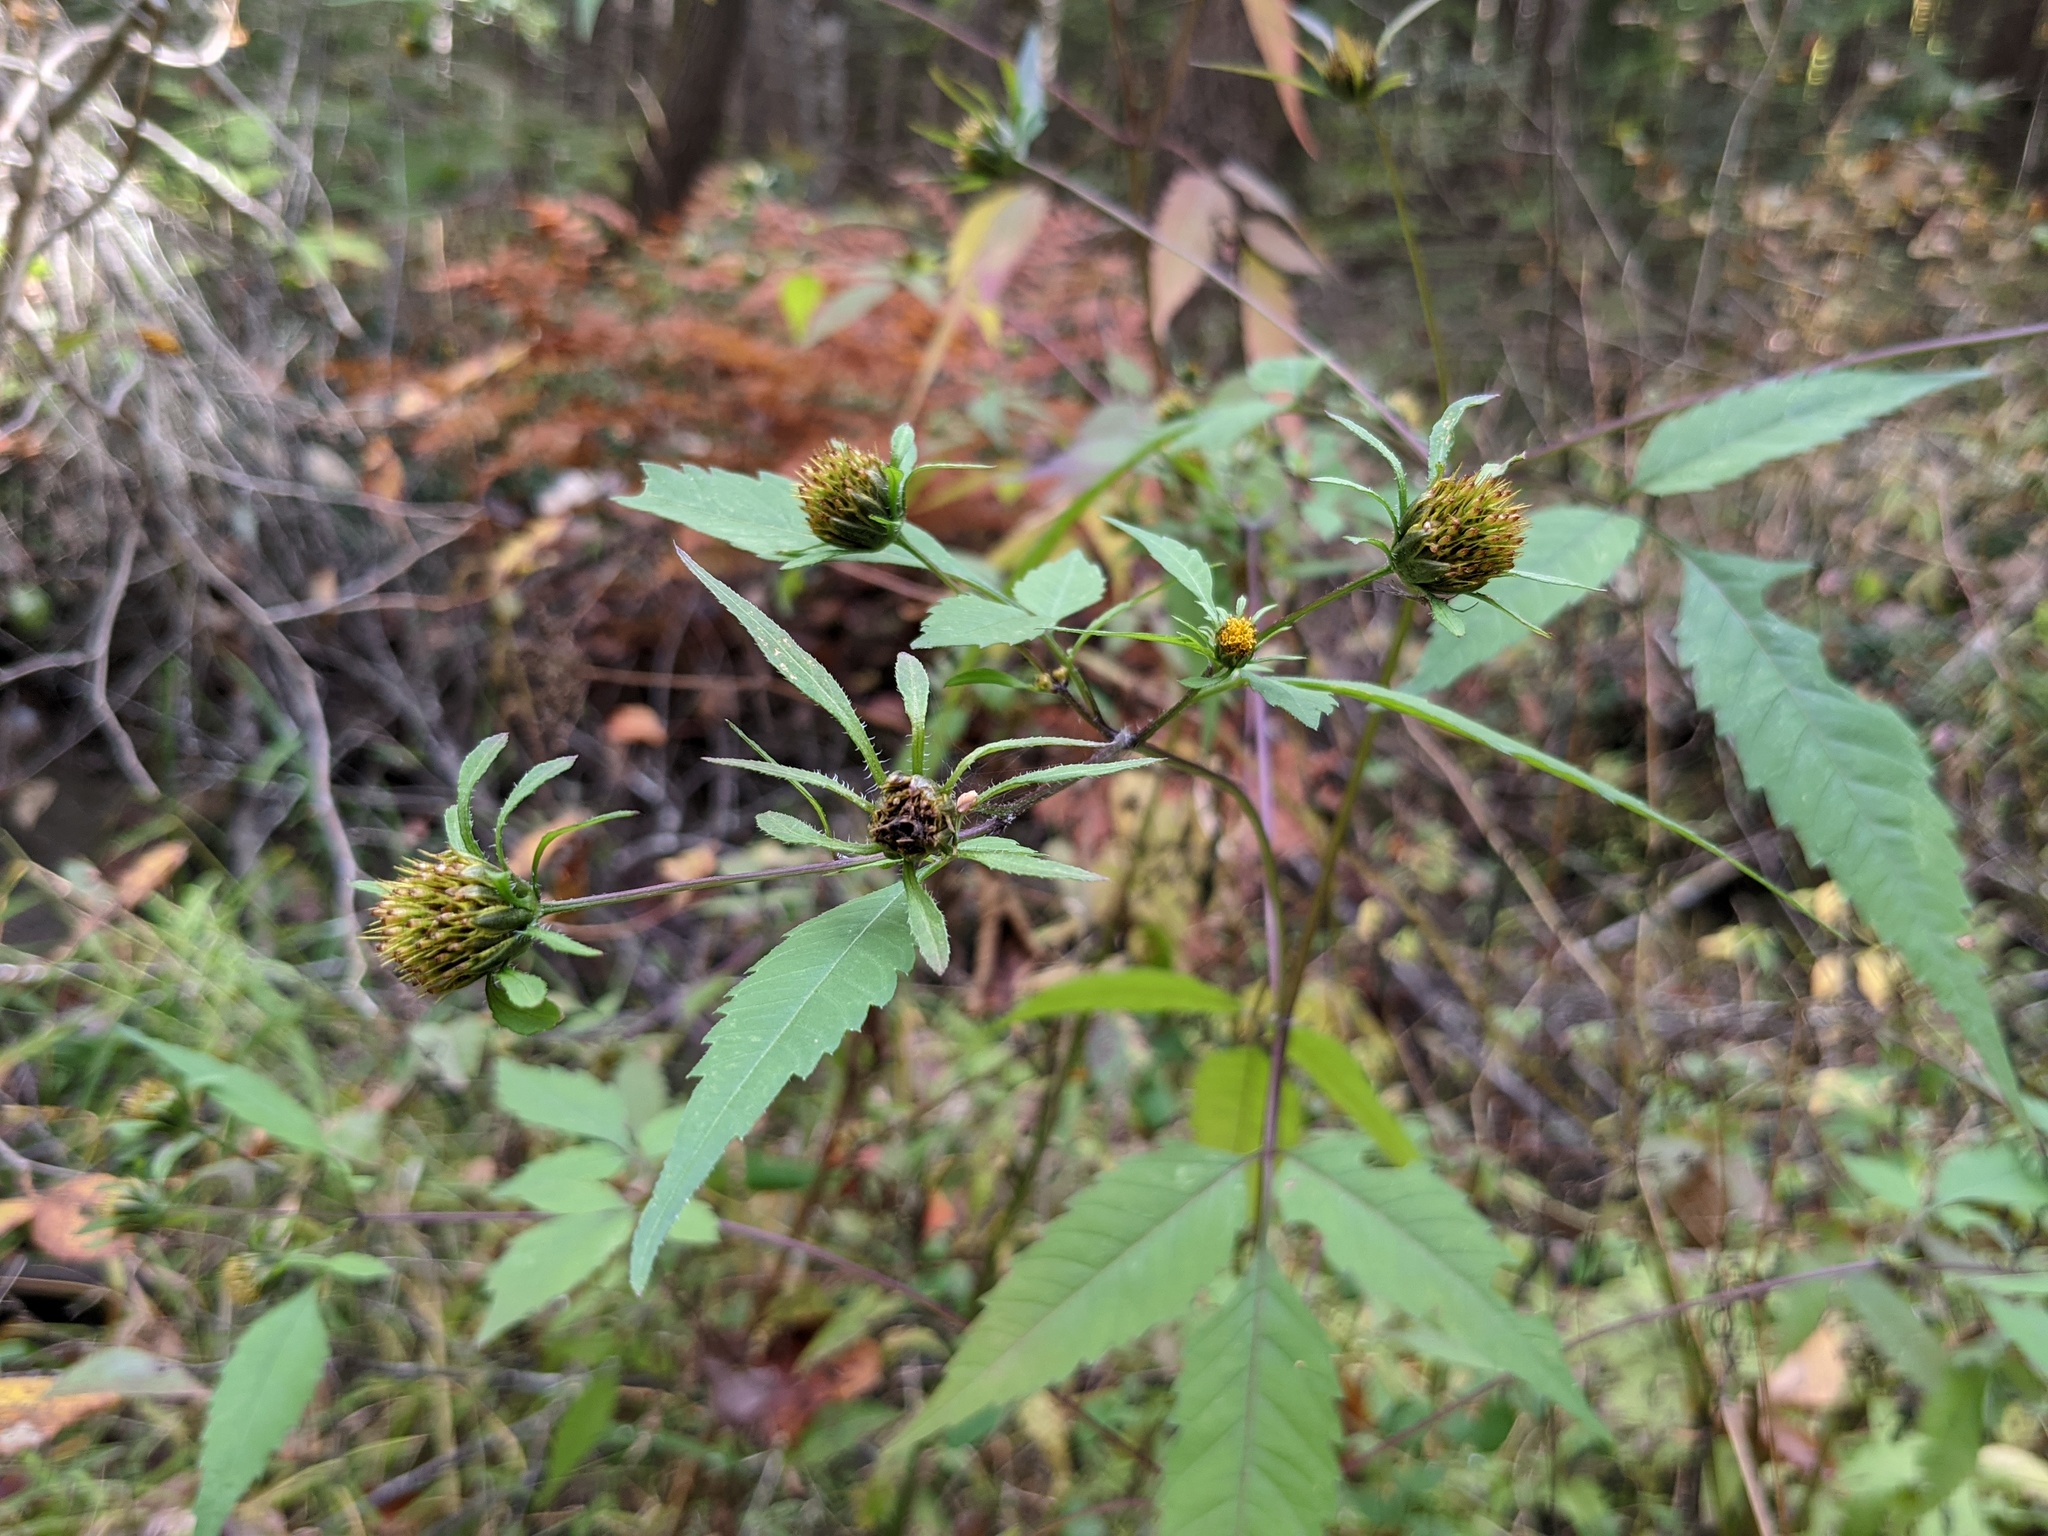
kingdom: Plantae
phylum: Tracheophyta
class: Magnoliopsida
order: Asterales
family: Asteraceae
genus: Bidens
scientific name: Bidens frondosa
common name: Beggarticks
